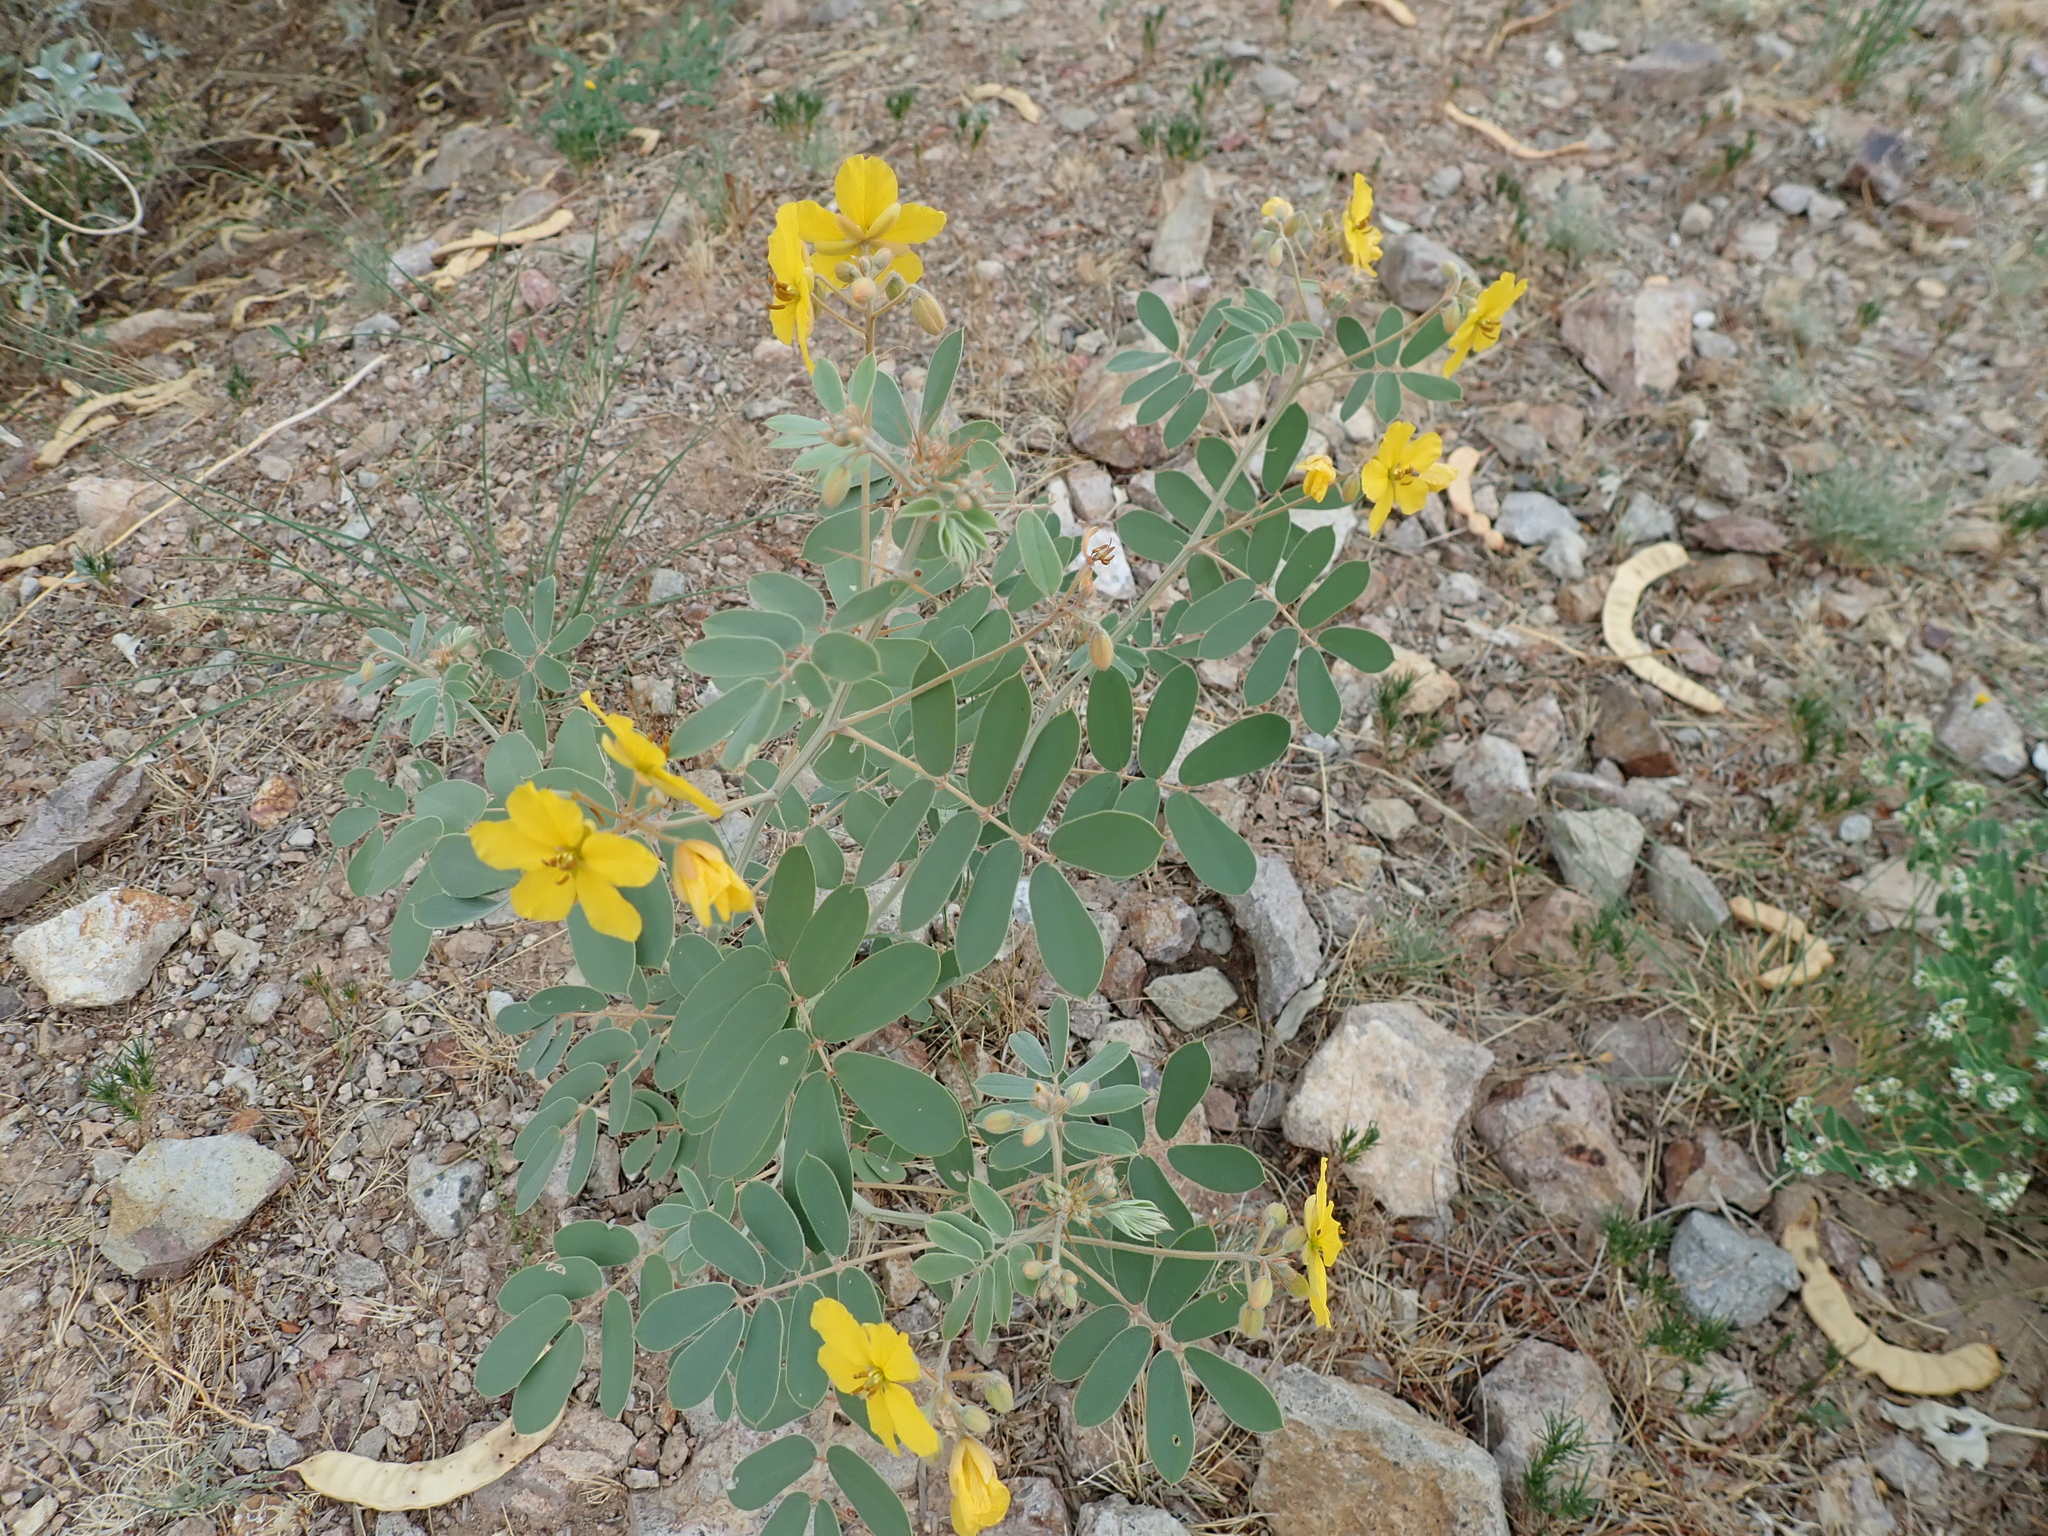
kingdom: Plantae
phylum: Tracheophyta
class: Magnoliopsida
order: Caryophyllales
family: Cactaceae
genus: Ferocactus
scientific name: Ferocactus wislizeni
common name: Candy barrel cactus
